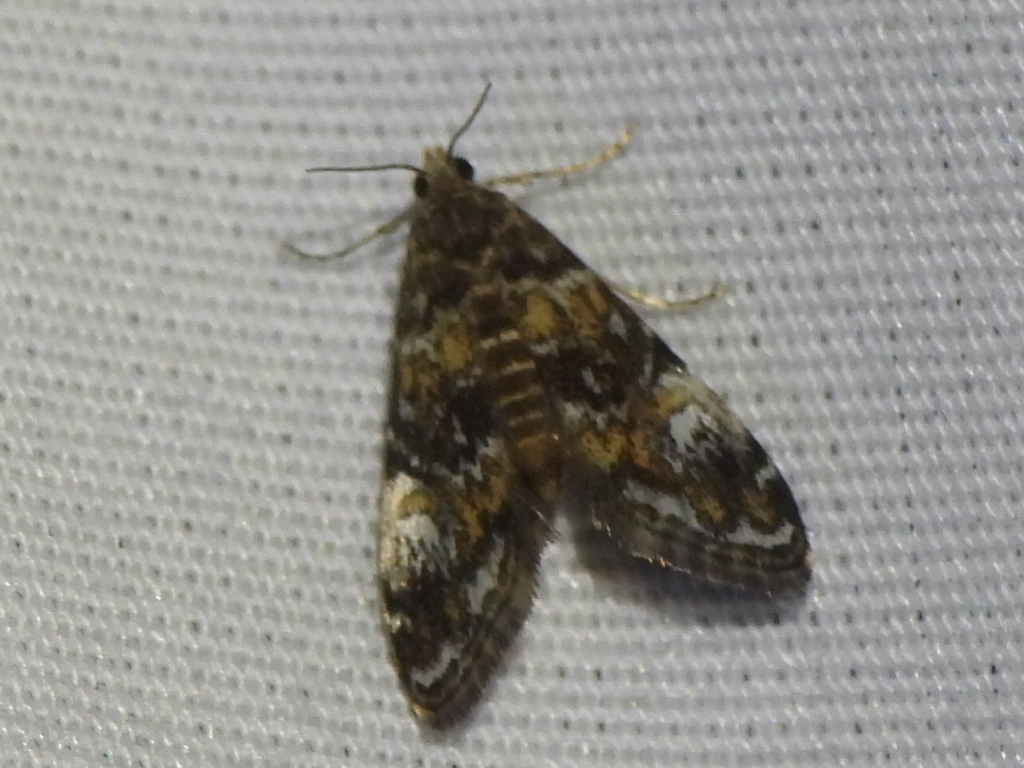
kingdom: Animalia
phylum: Arthropoda
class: Insecta
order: Lepidoptera
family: Crambidae
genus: Elophila
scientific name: Elophila obliteralis
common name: Waterlily leafcutter moth
